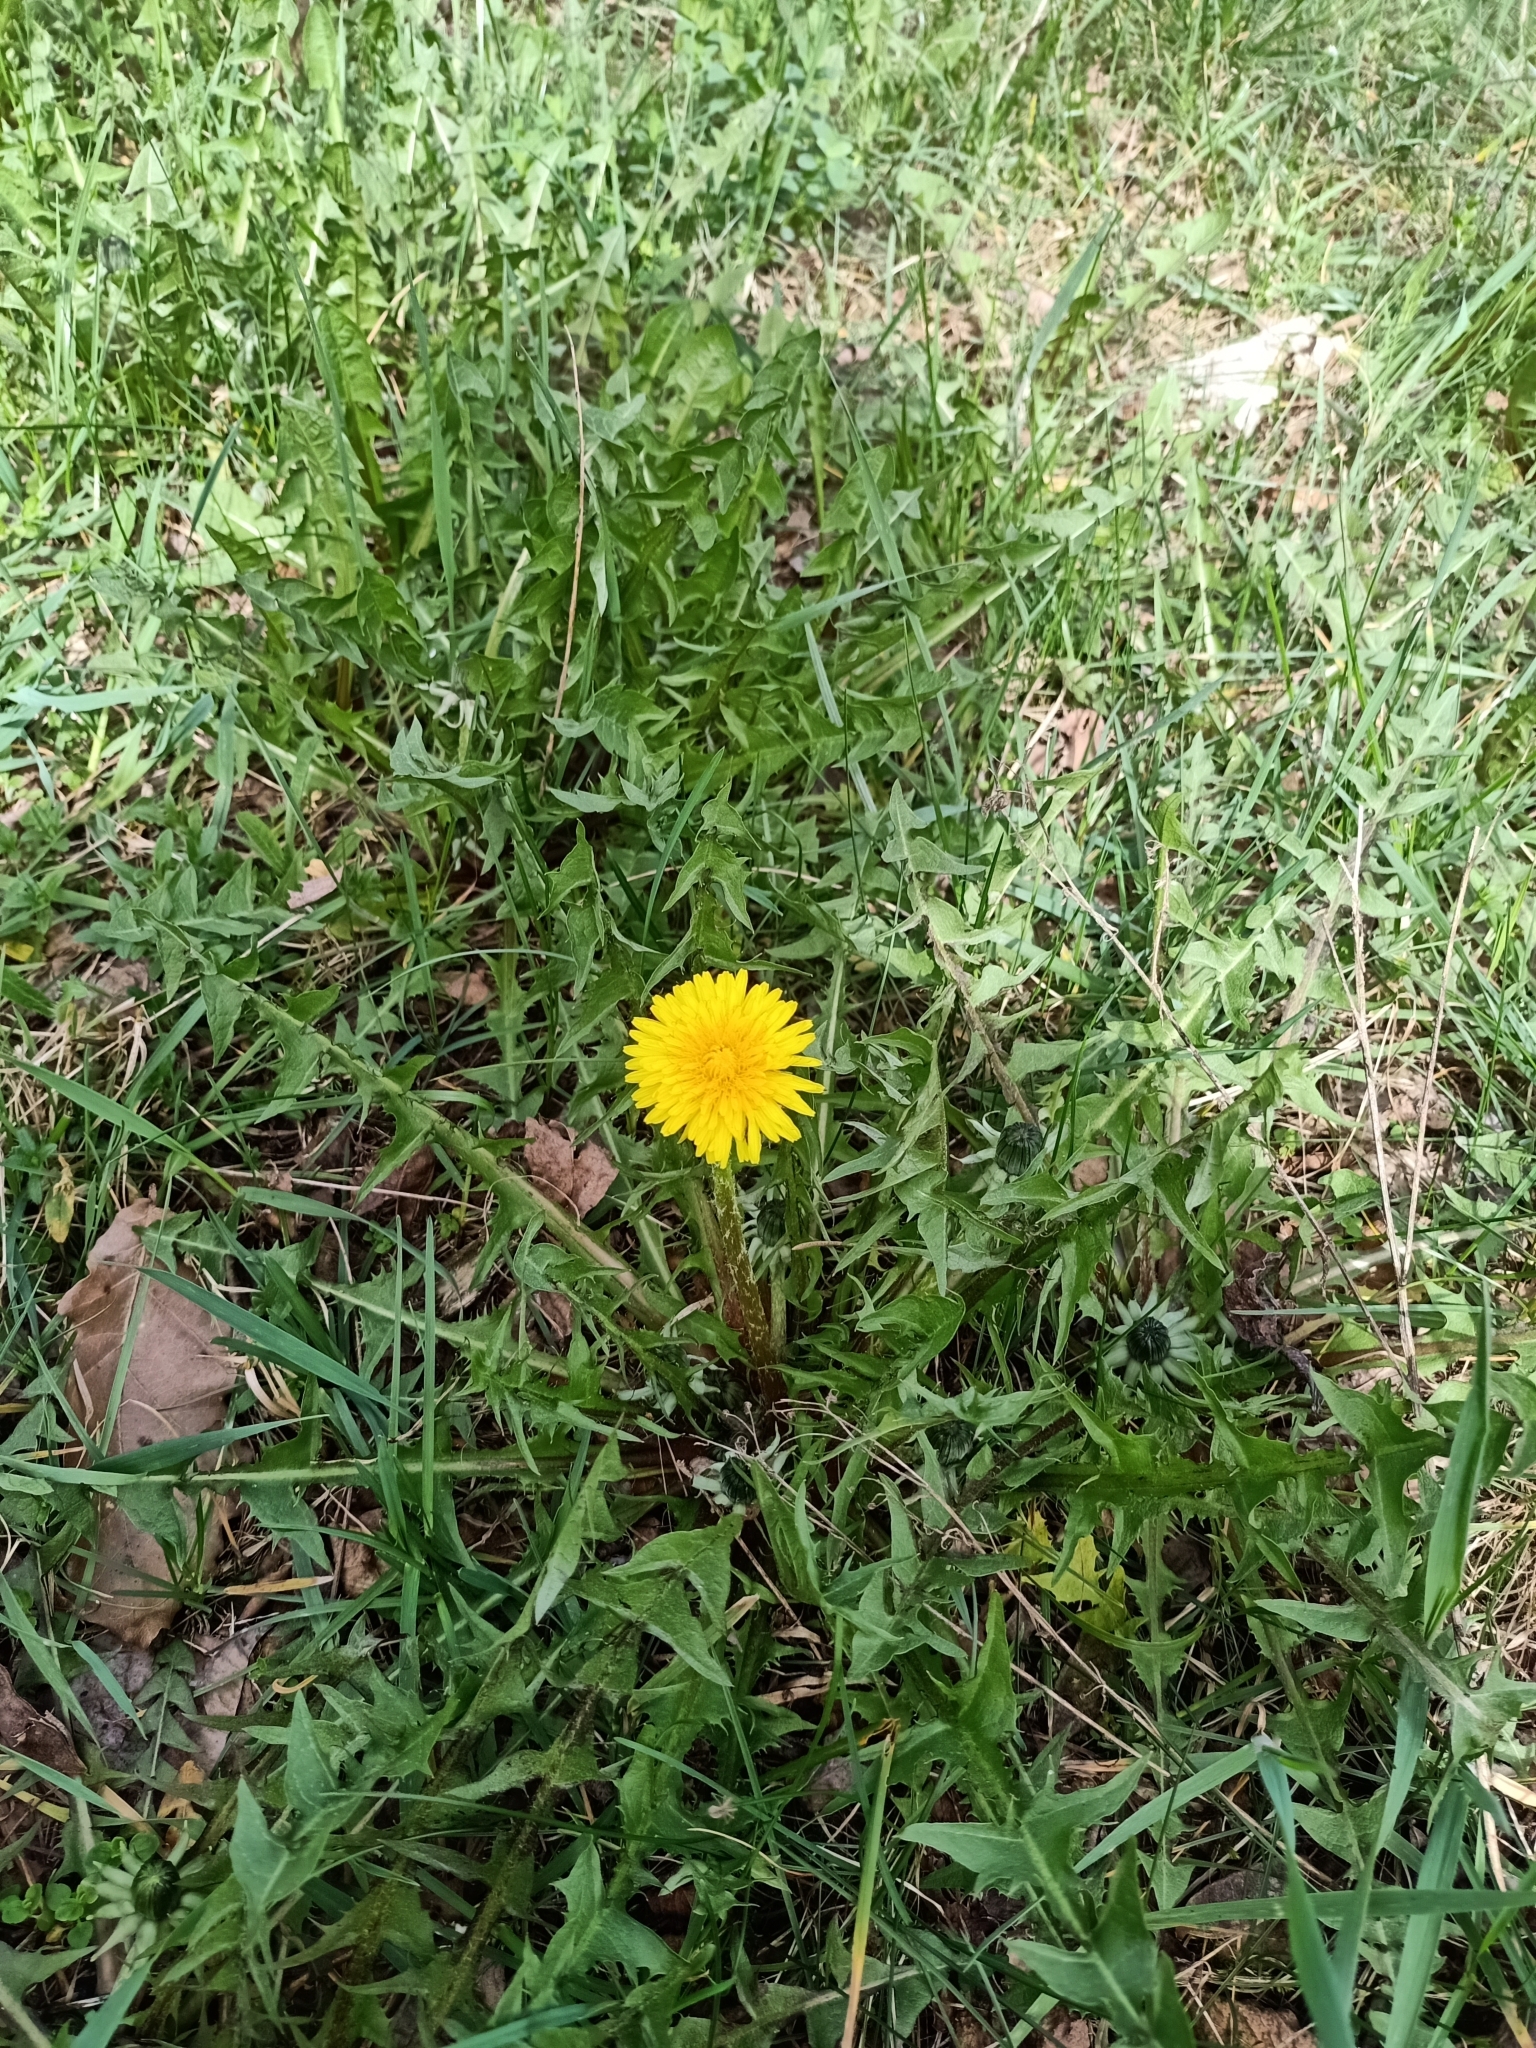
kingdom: Plantae
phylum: Tracheophyta
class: Magnoliopsida
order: Asterales
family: Asteraceae
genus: Taraxacum
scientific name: Taraxacum officinale
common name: Common dandelion
